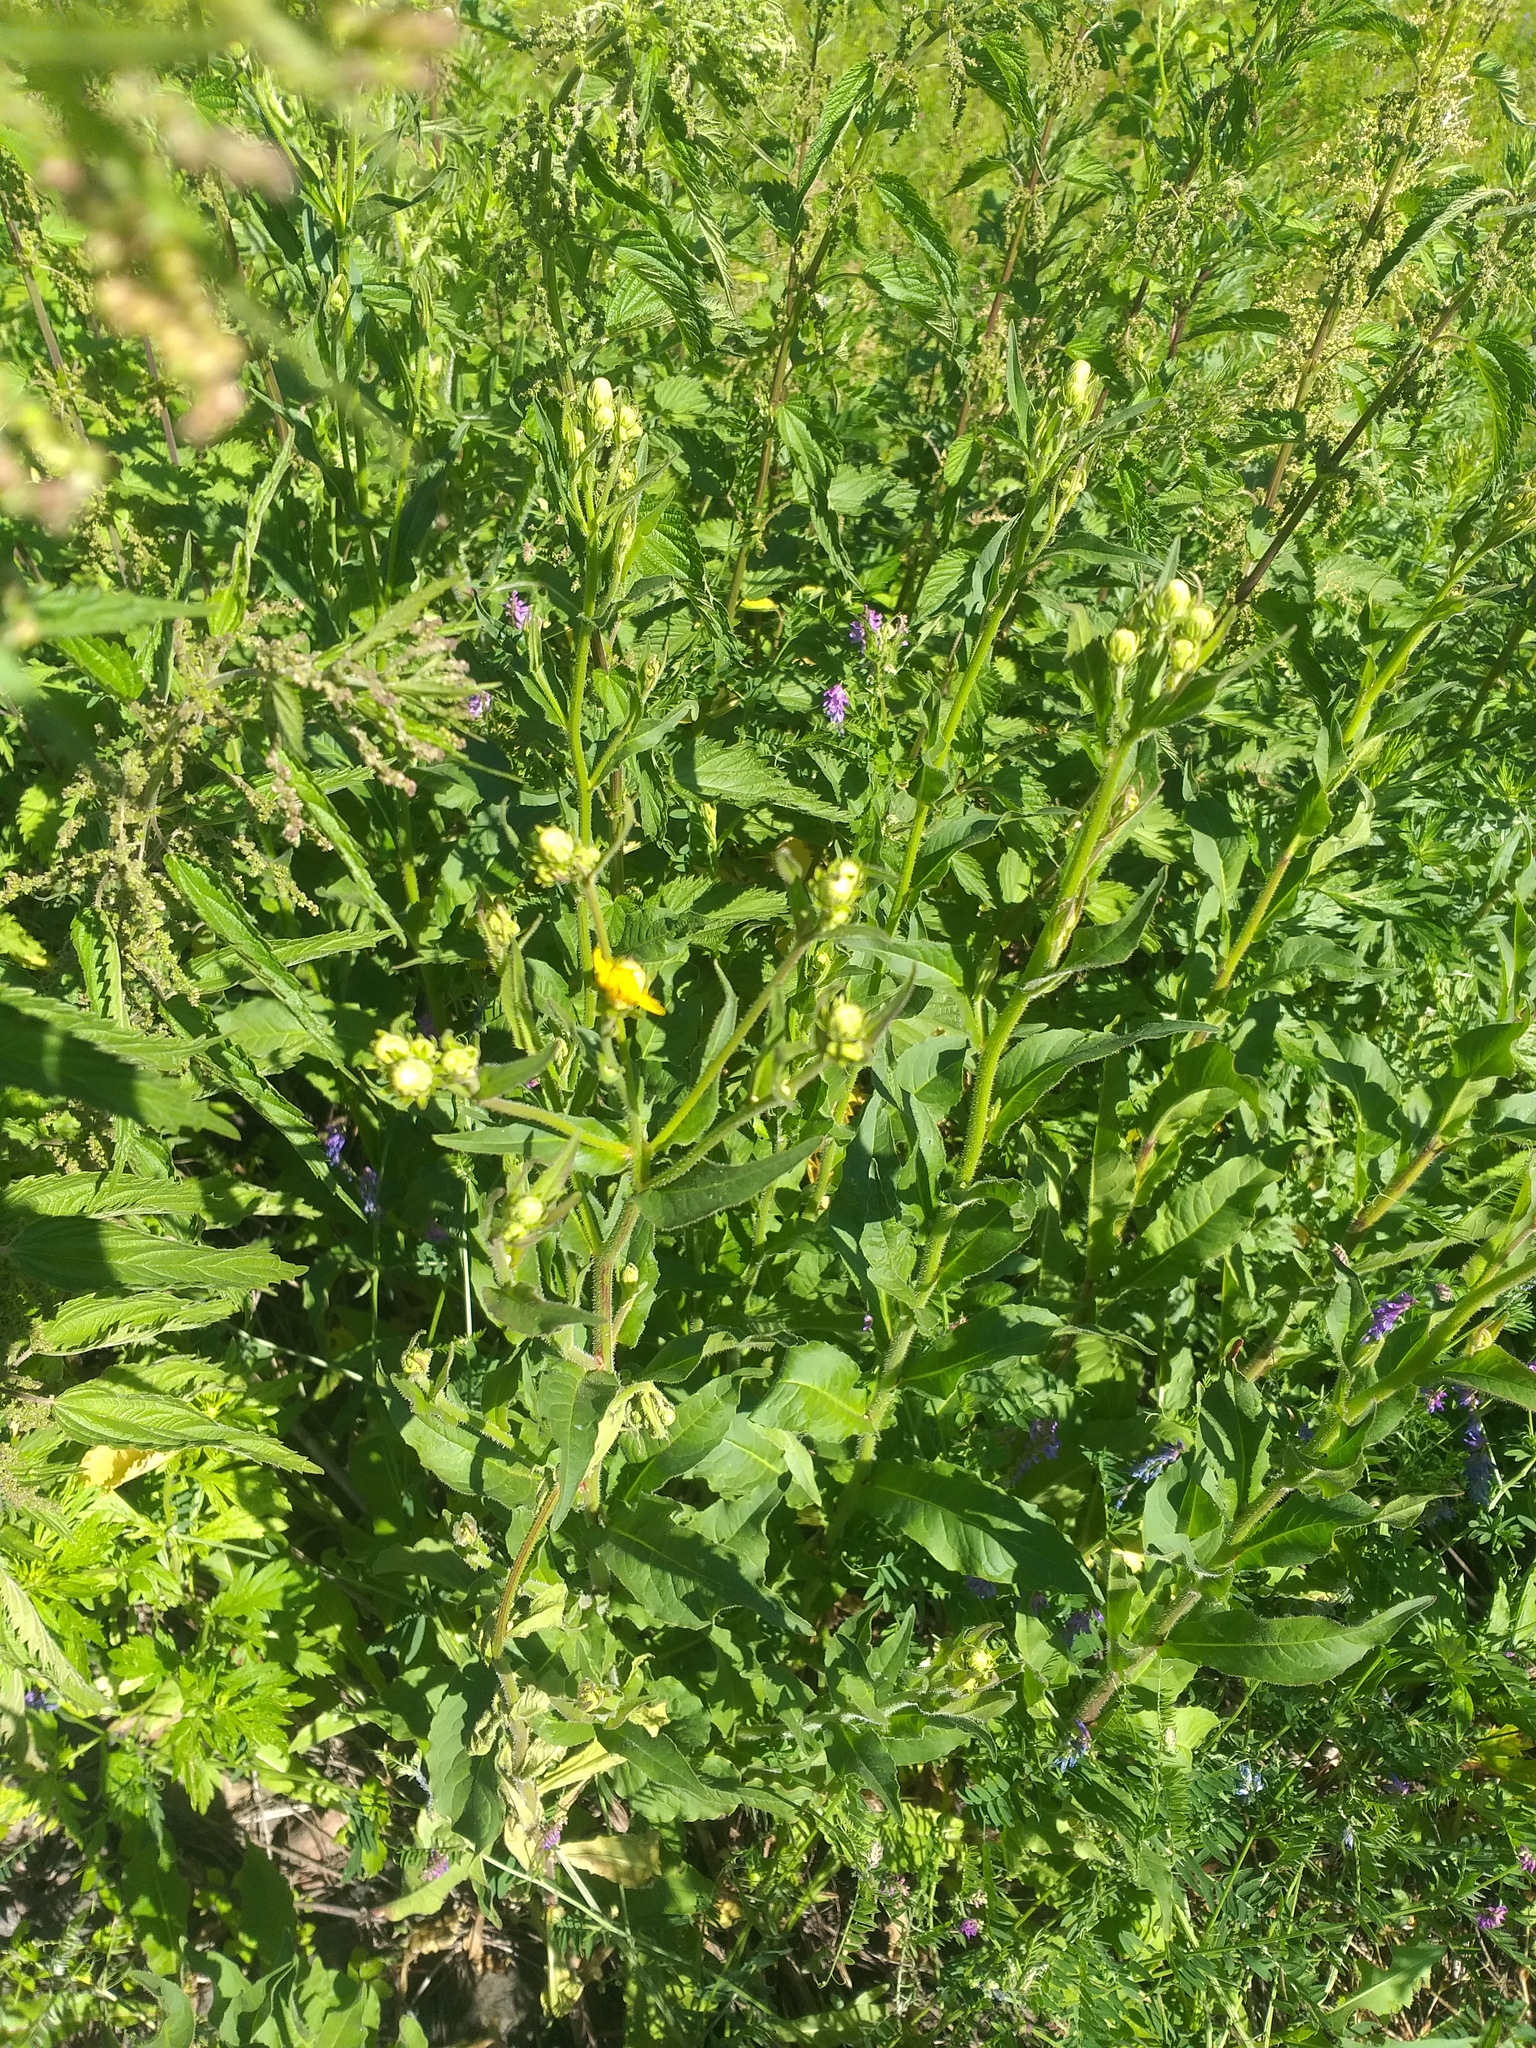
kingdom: Plantae
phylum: Tracheophyta
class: Magnoliopsida
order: Asterales
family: Asteraceae
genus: Picris
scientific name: Picris hieracioides
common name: Hawkweed oxtongue
